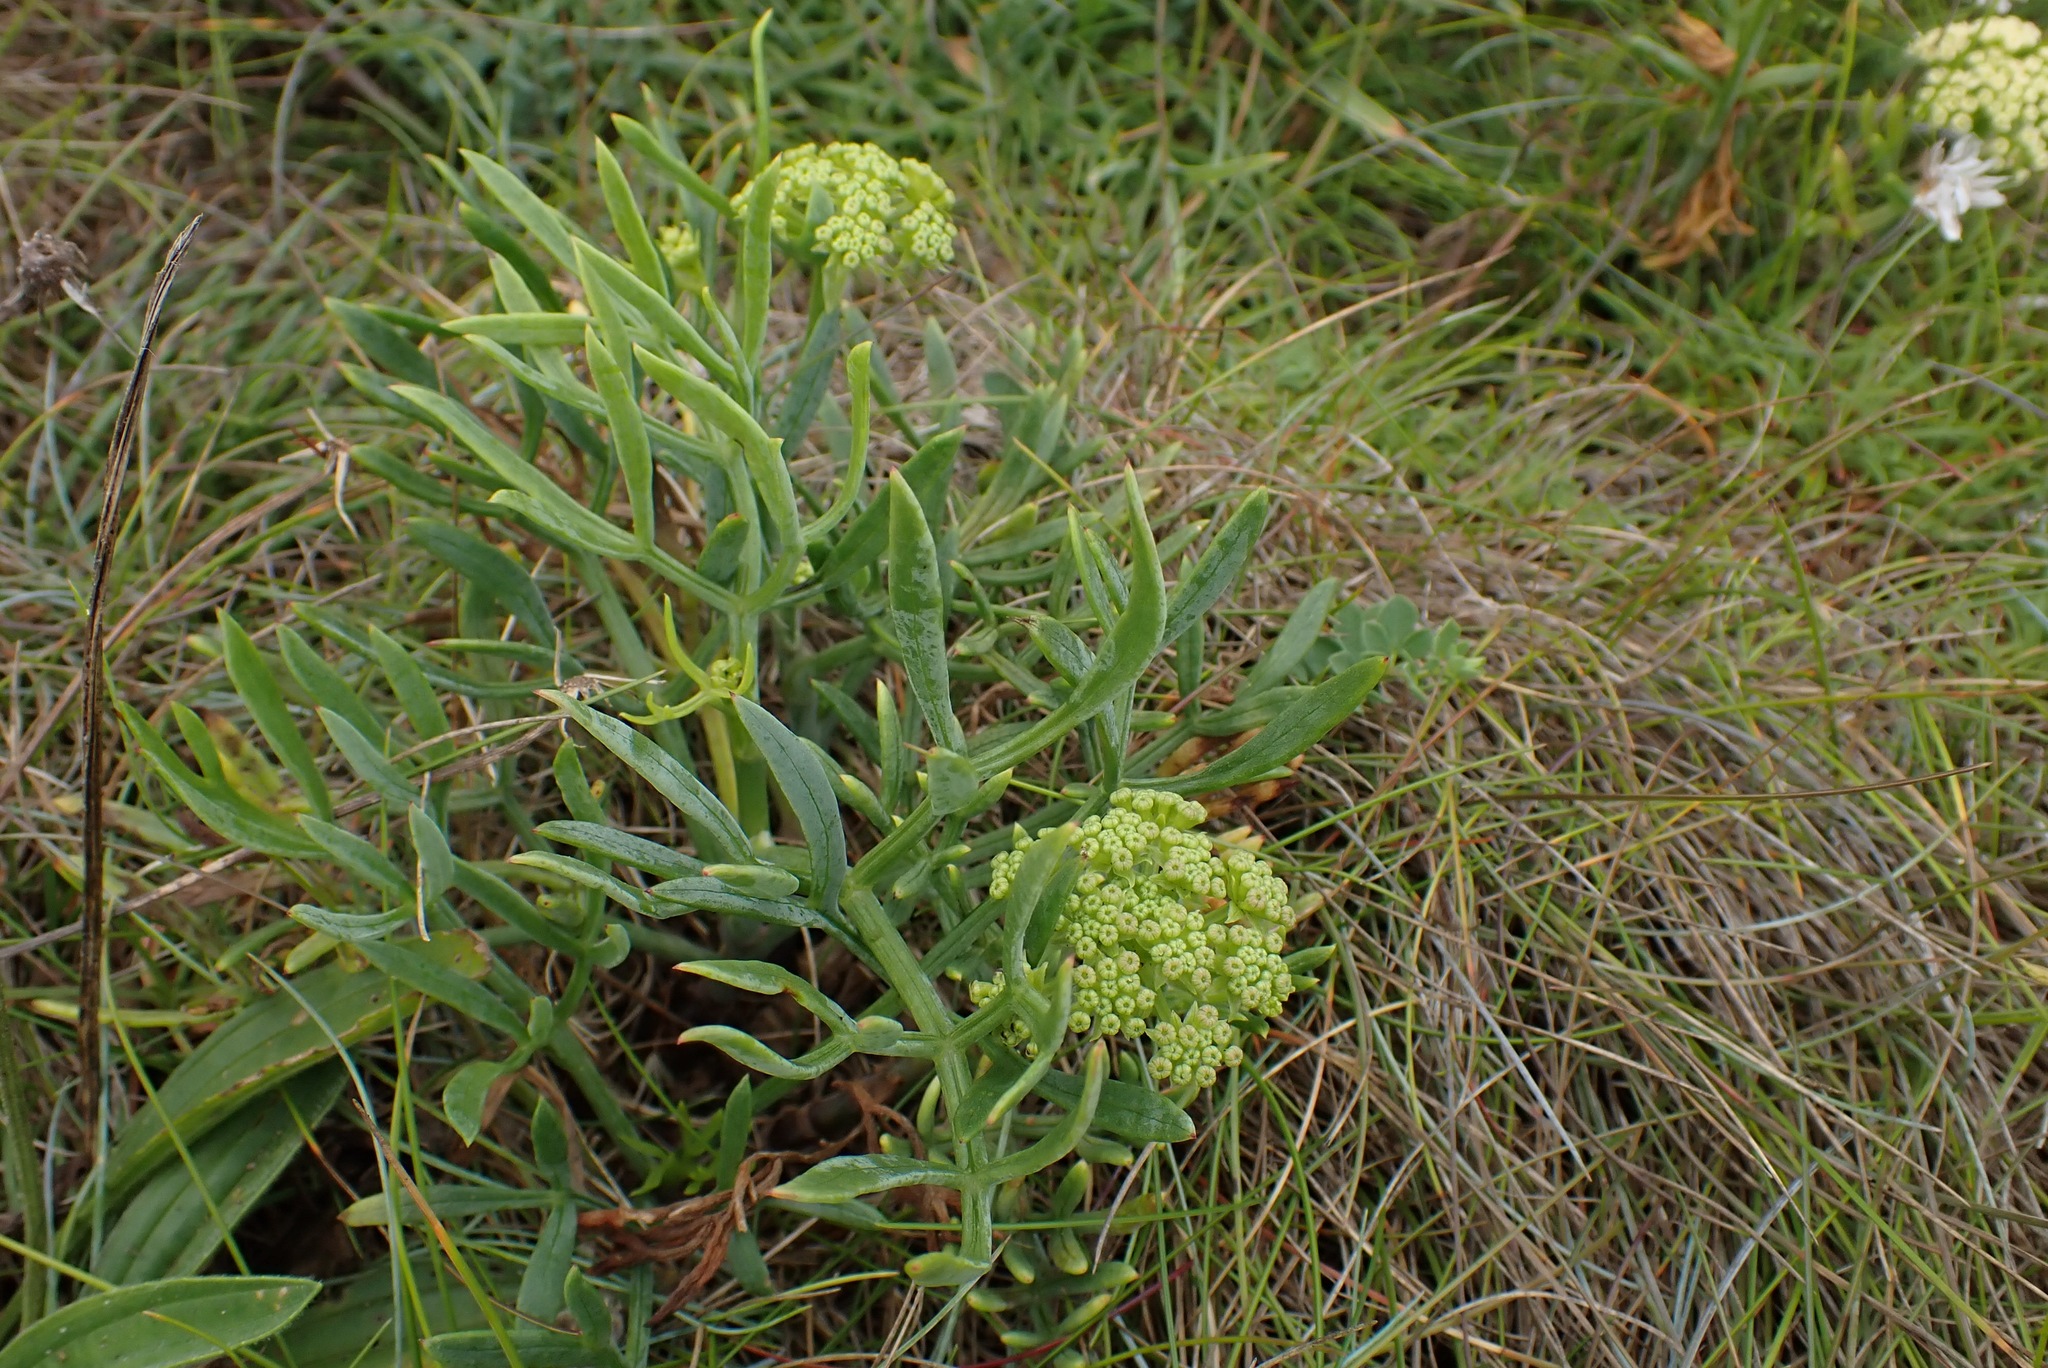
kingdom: Plantae
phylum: Tracheophyta
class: Magnoliopsida
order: Apiales
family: Apiaceae
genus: Crithmum
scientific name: Crithmum maritimum
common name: Rock samphire
